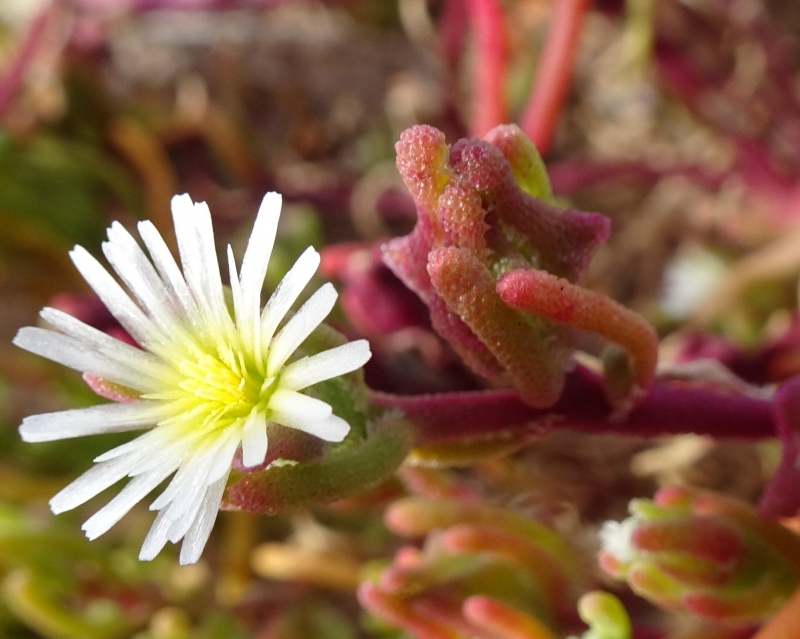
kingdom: Plantae
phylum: Tracheophyta
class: Magnoliopsida
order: Caryophyllales
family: Aizoaceae
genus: Mesembryanthemum
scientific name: Mesembryanthemum nodiflorum
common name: Slenderleaf iceplant
